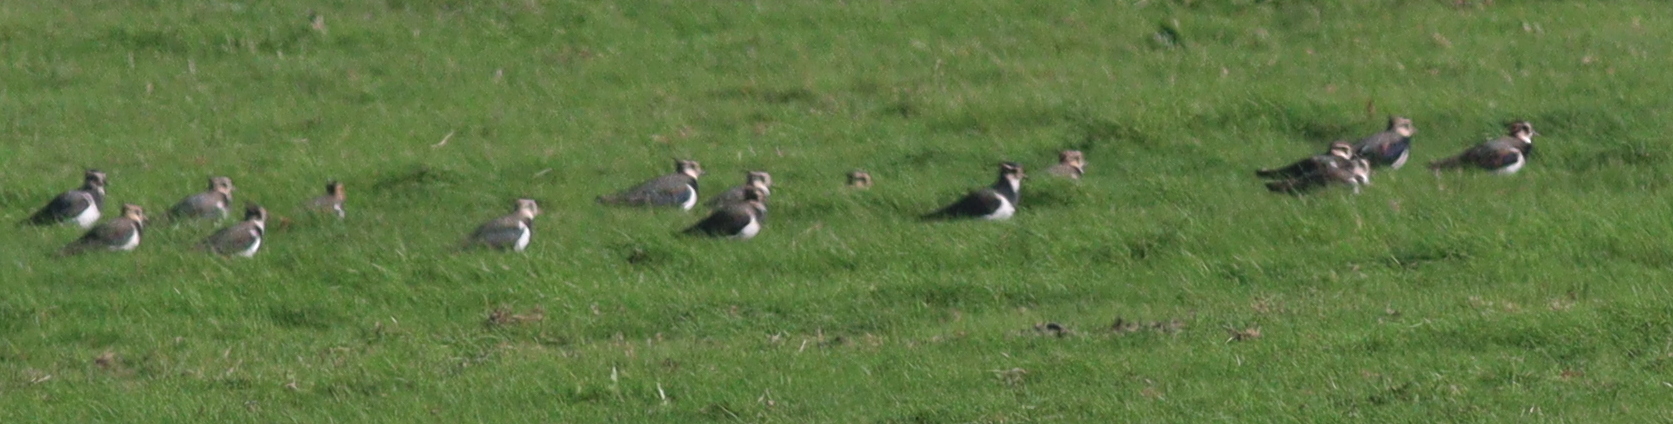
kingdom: Animalia
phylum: Chordata
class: Aves
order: Charadriiformes
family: Charadriidae
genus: Vanellus
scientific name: Vanellus vanellus
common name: Northern lapwing
